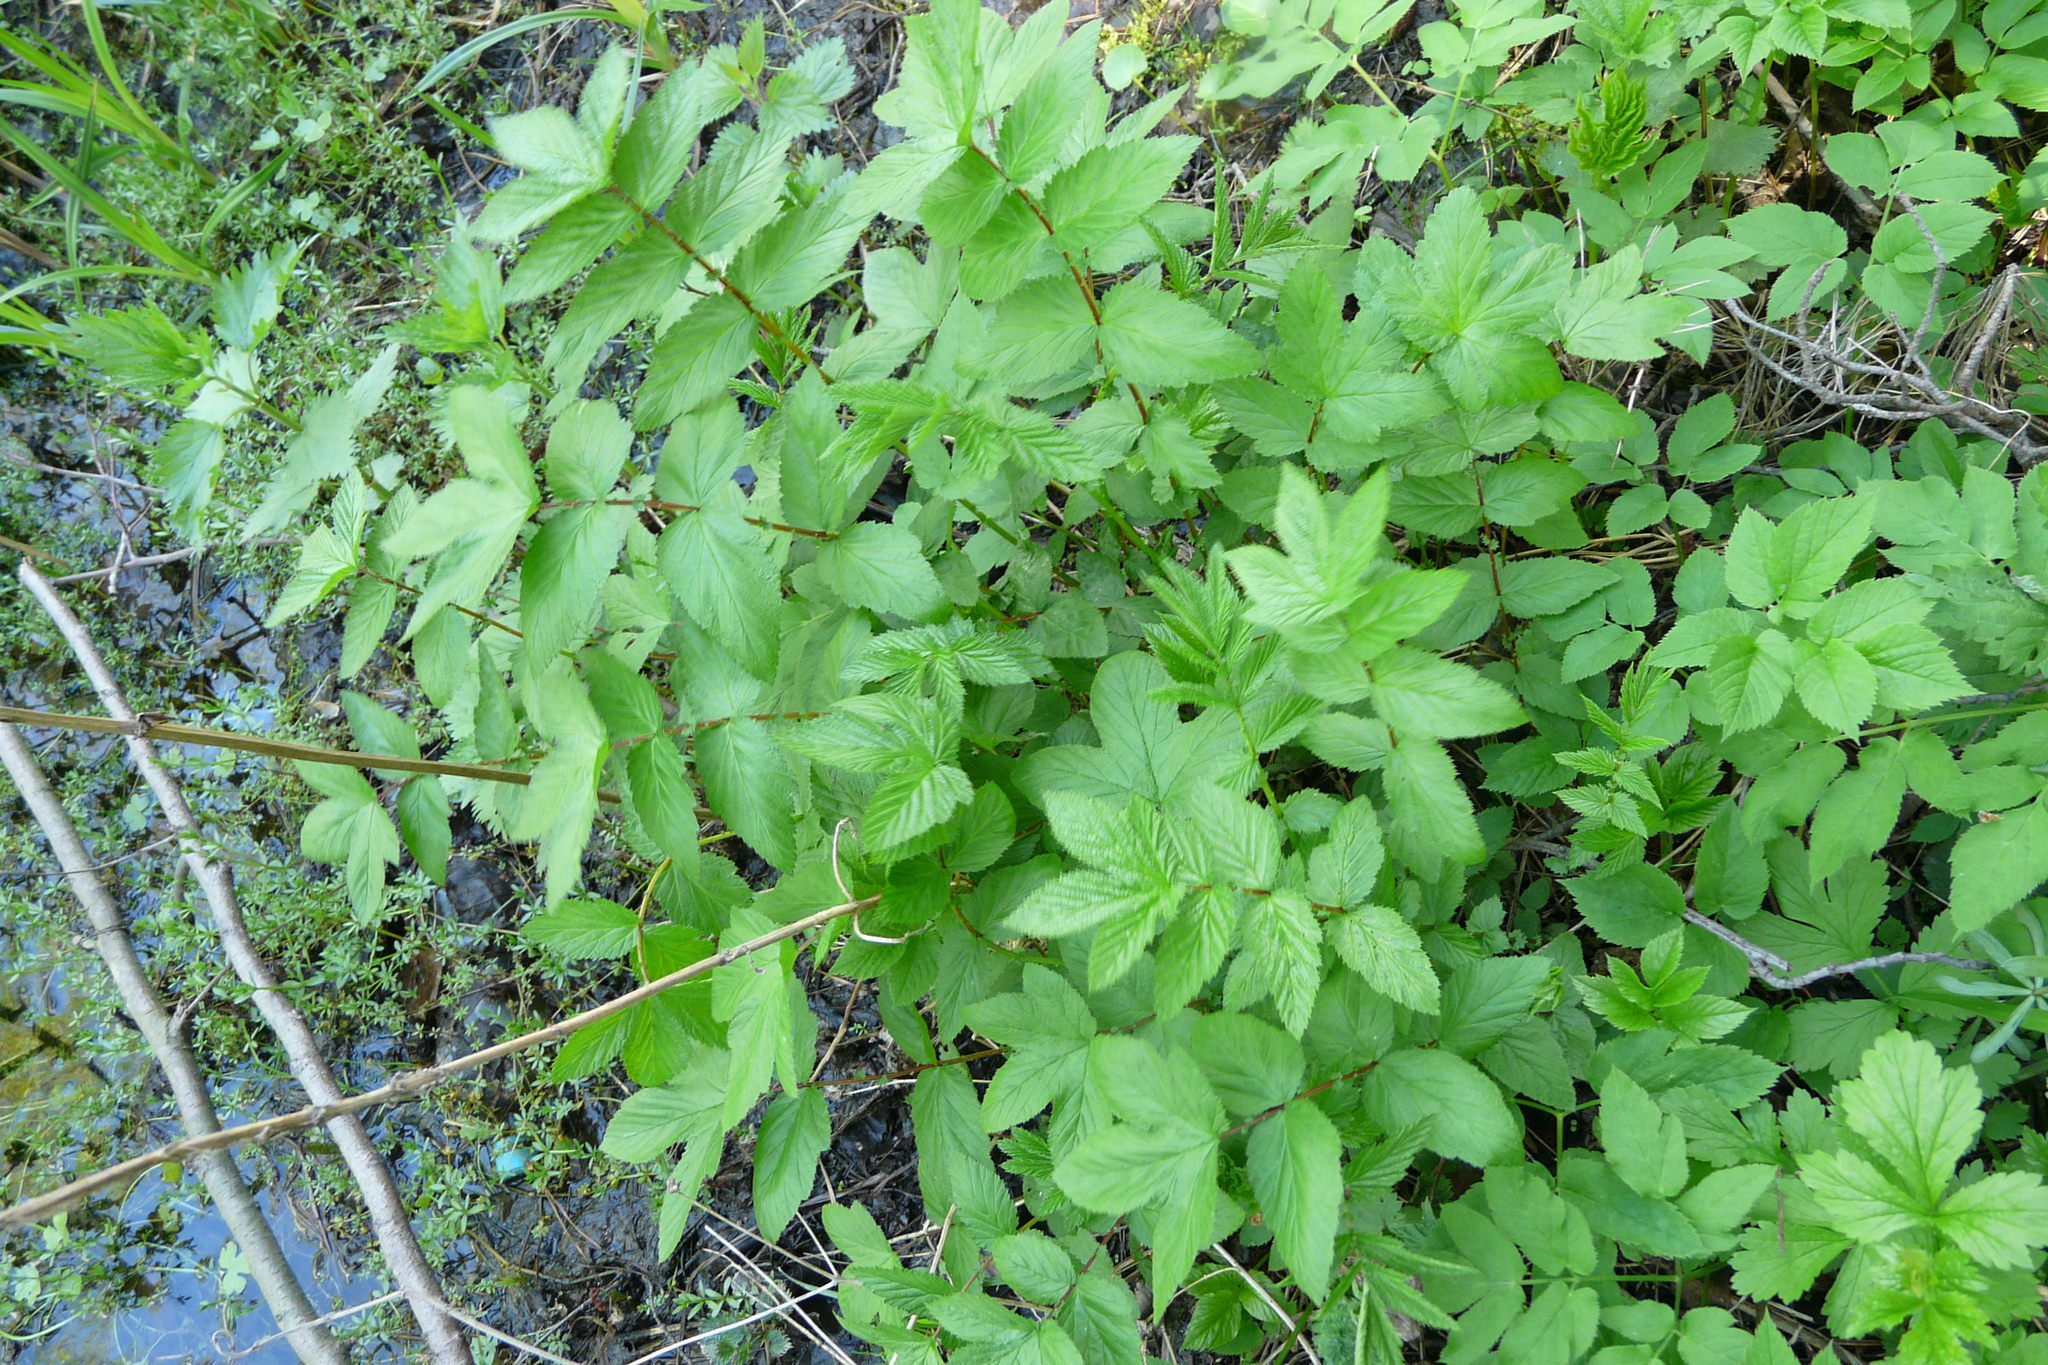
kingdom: Plantae
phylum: Tracheophyta
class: Magnoliopsida
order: Rosales
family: Rosaceae
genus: Filipendula
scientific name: Filipendula ulmaria
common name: Meadowsweet
